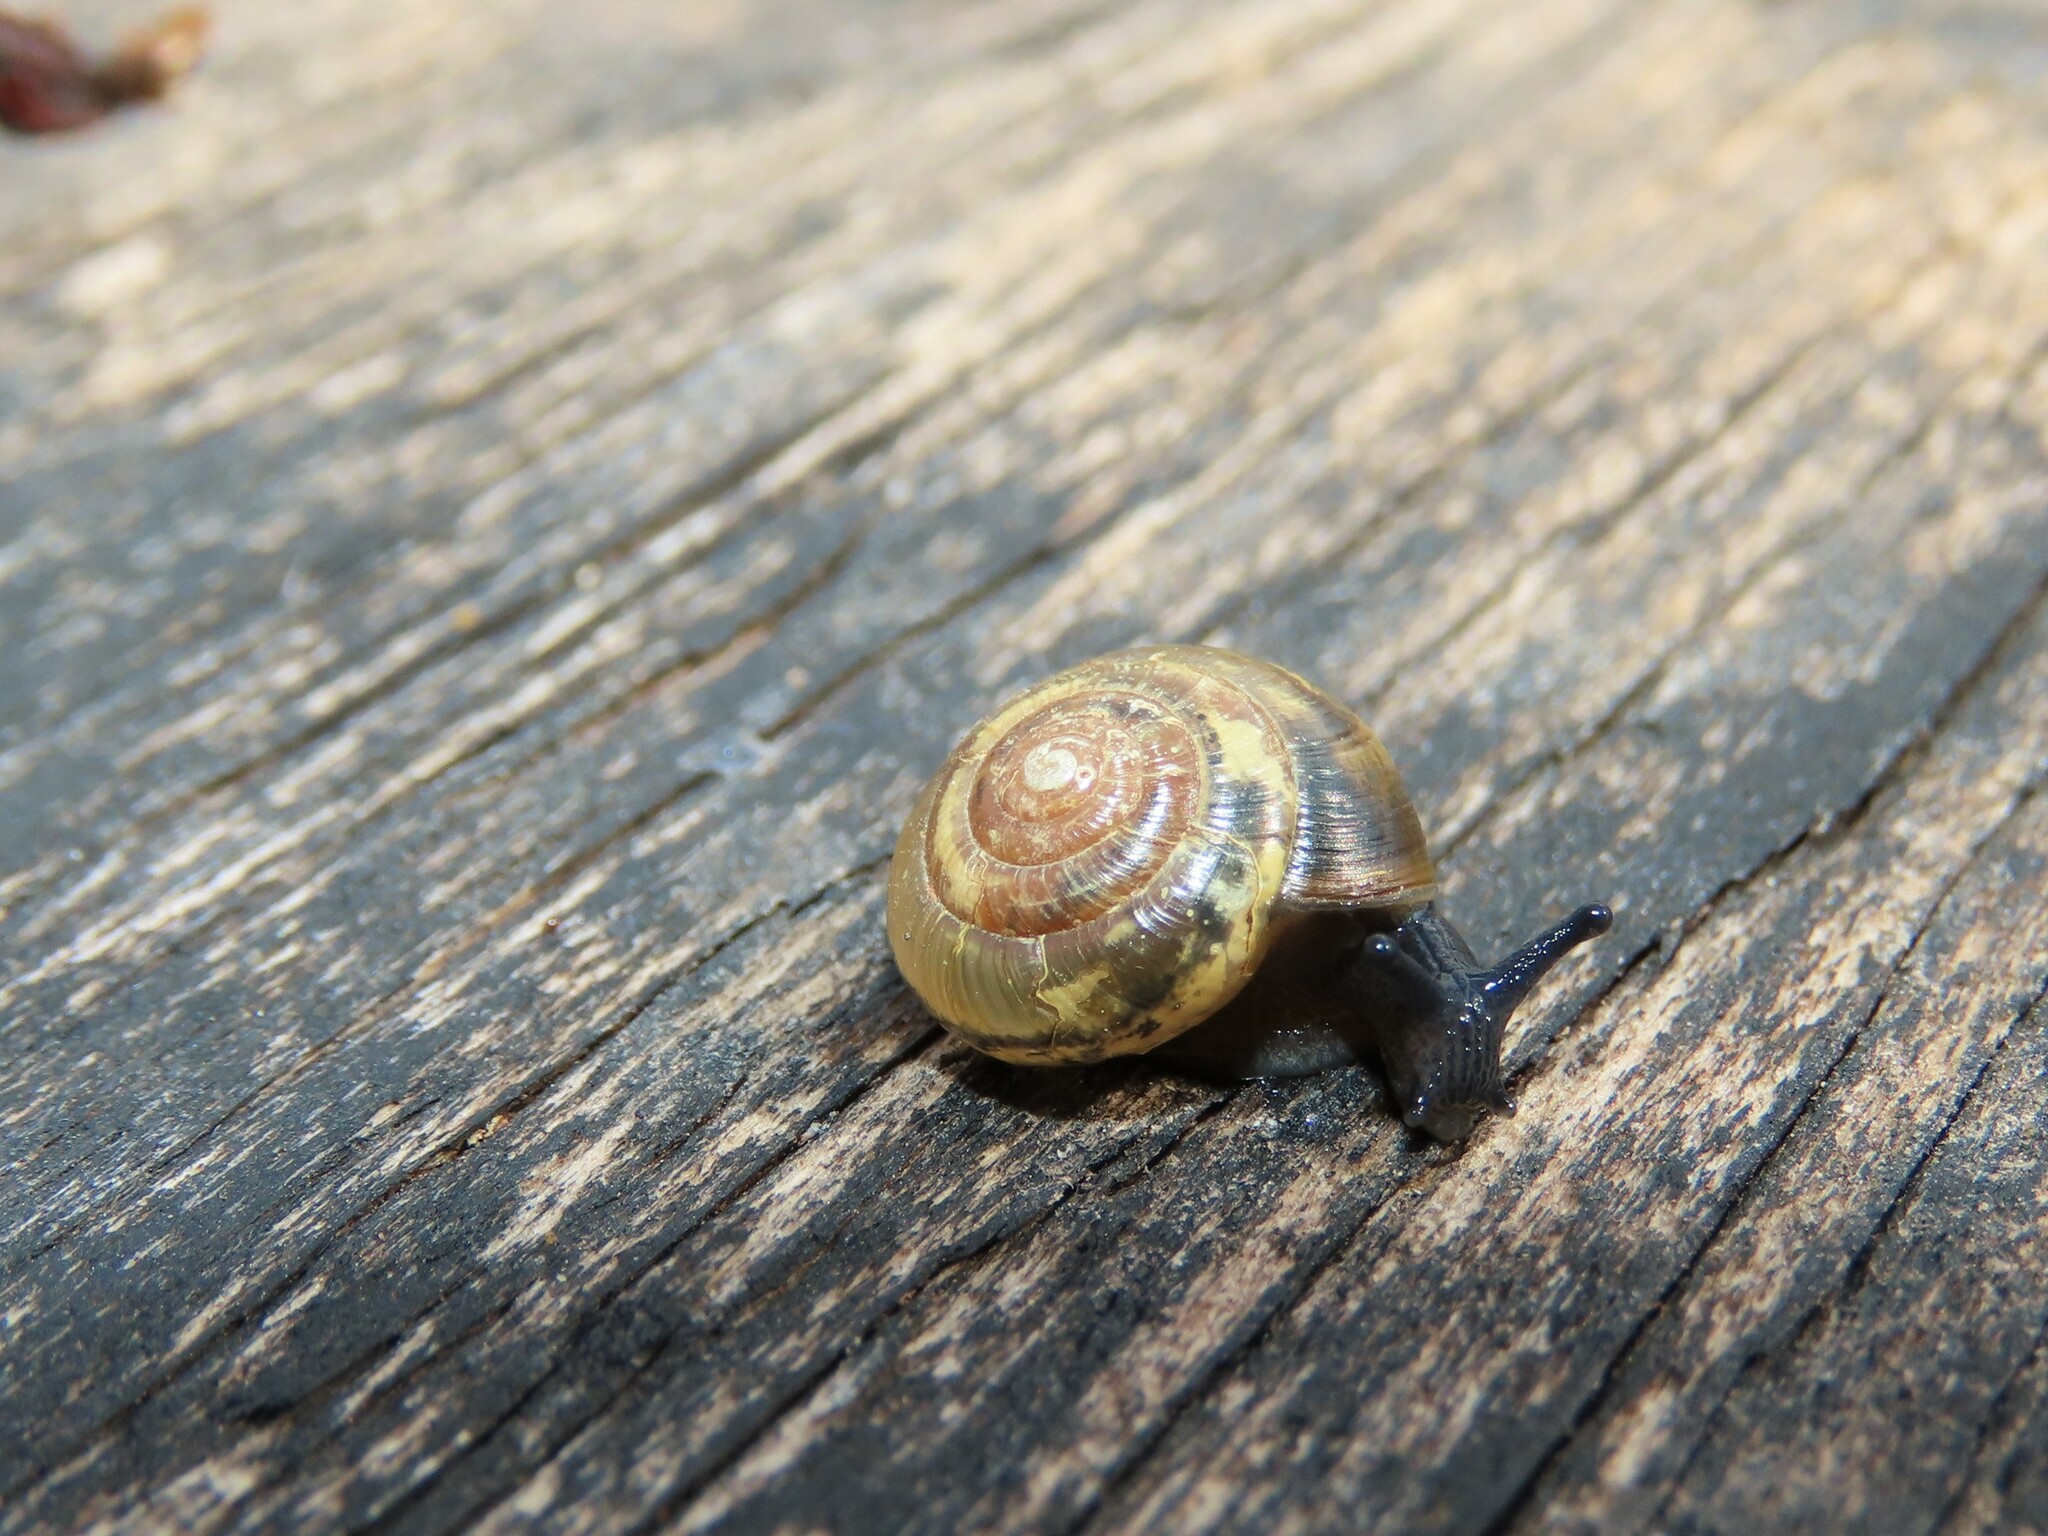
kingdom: Animalia
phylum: Mollusca
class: Gastropoda
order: Stylommatophora
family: Gastrodontidae
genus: Ventridens
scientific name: Ventridens ligera
